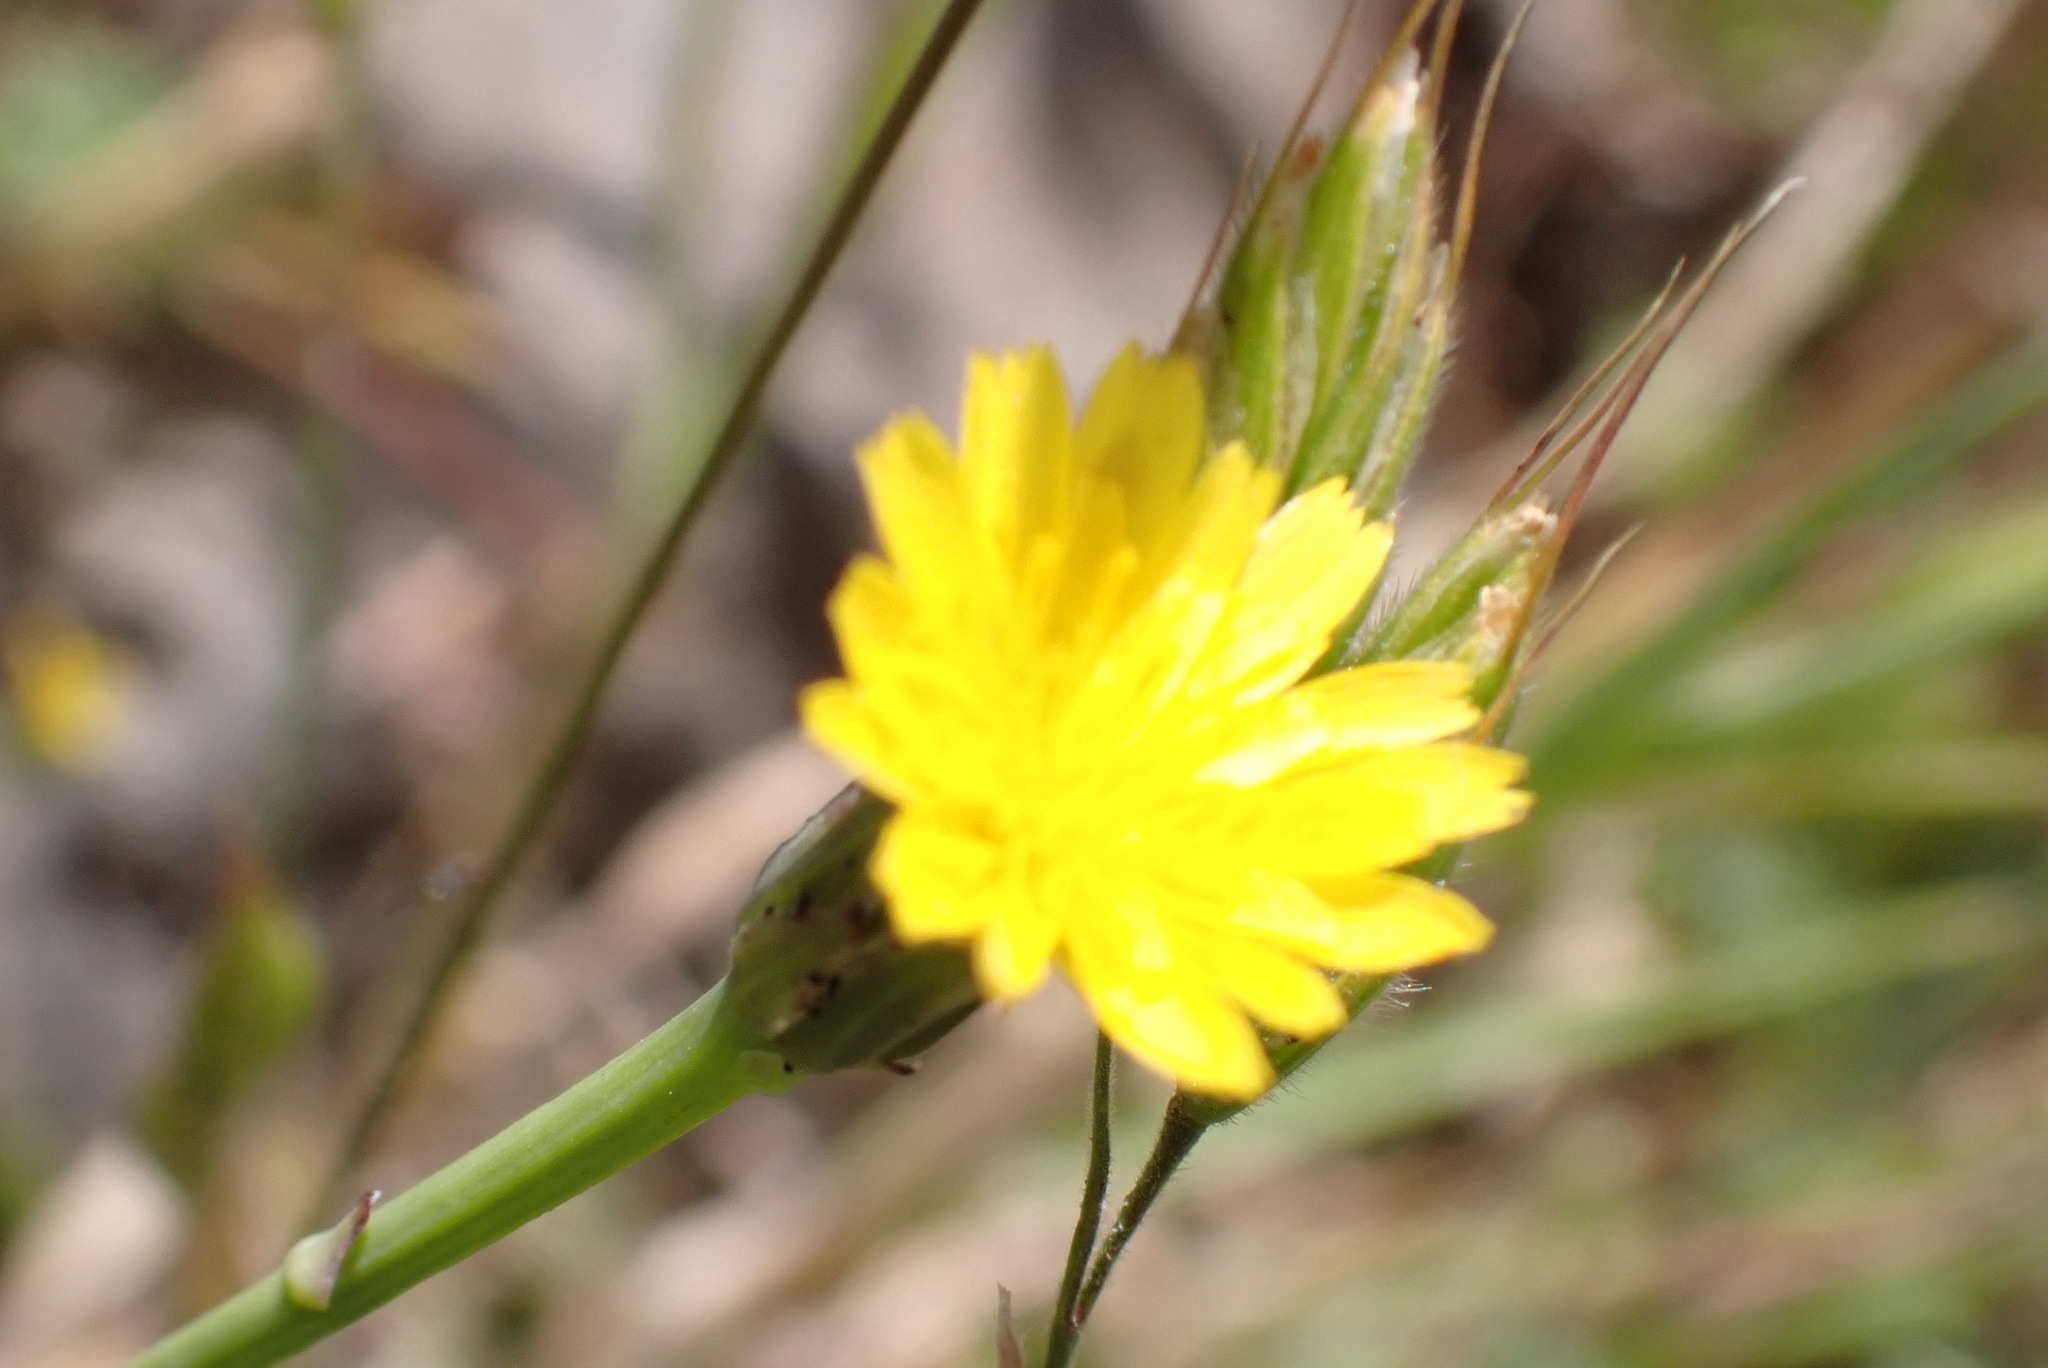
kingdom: Plantae
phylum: Tracheophyta
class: Magnoliopsida
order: Asterales
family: Asteraceae
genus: Hypochaeris
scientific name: Hypochaeris glabra
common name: Smooth catsear
